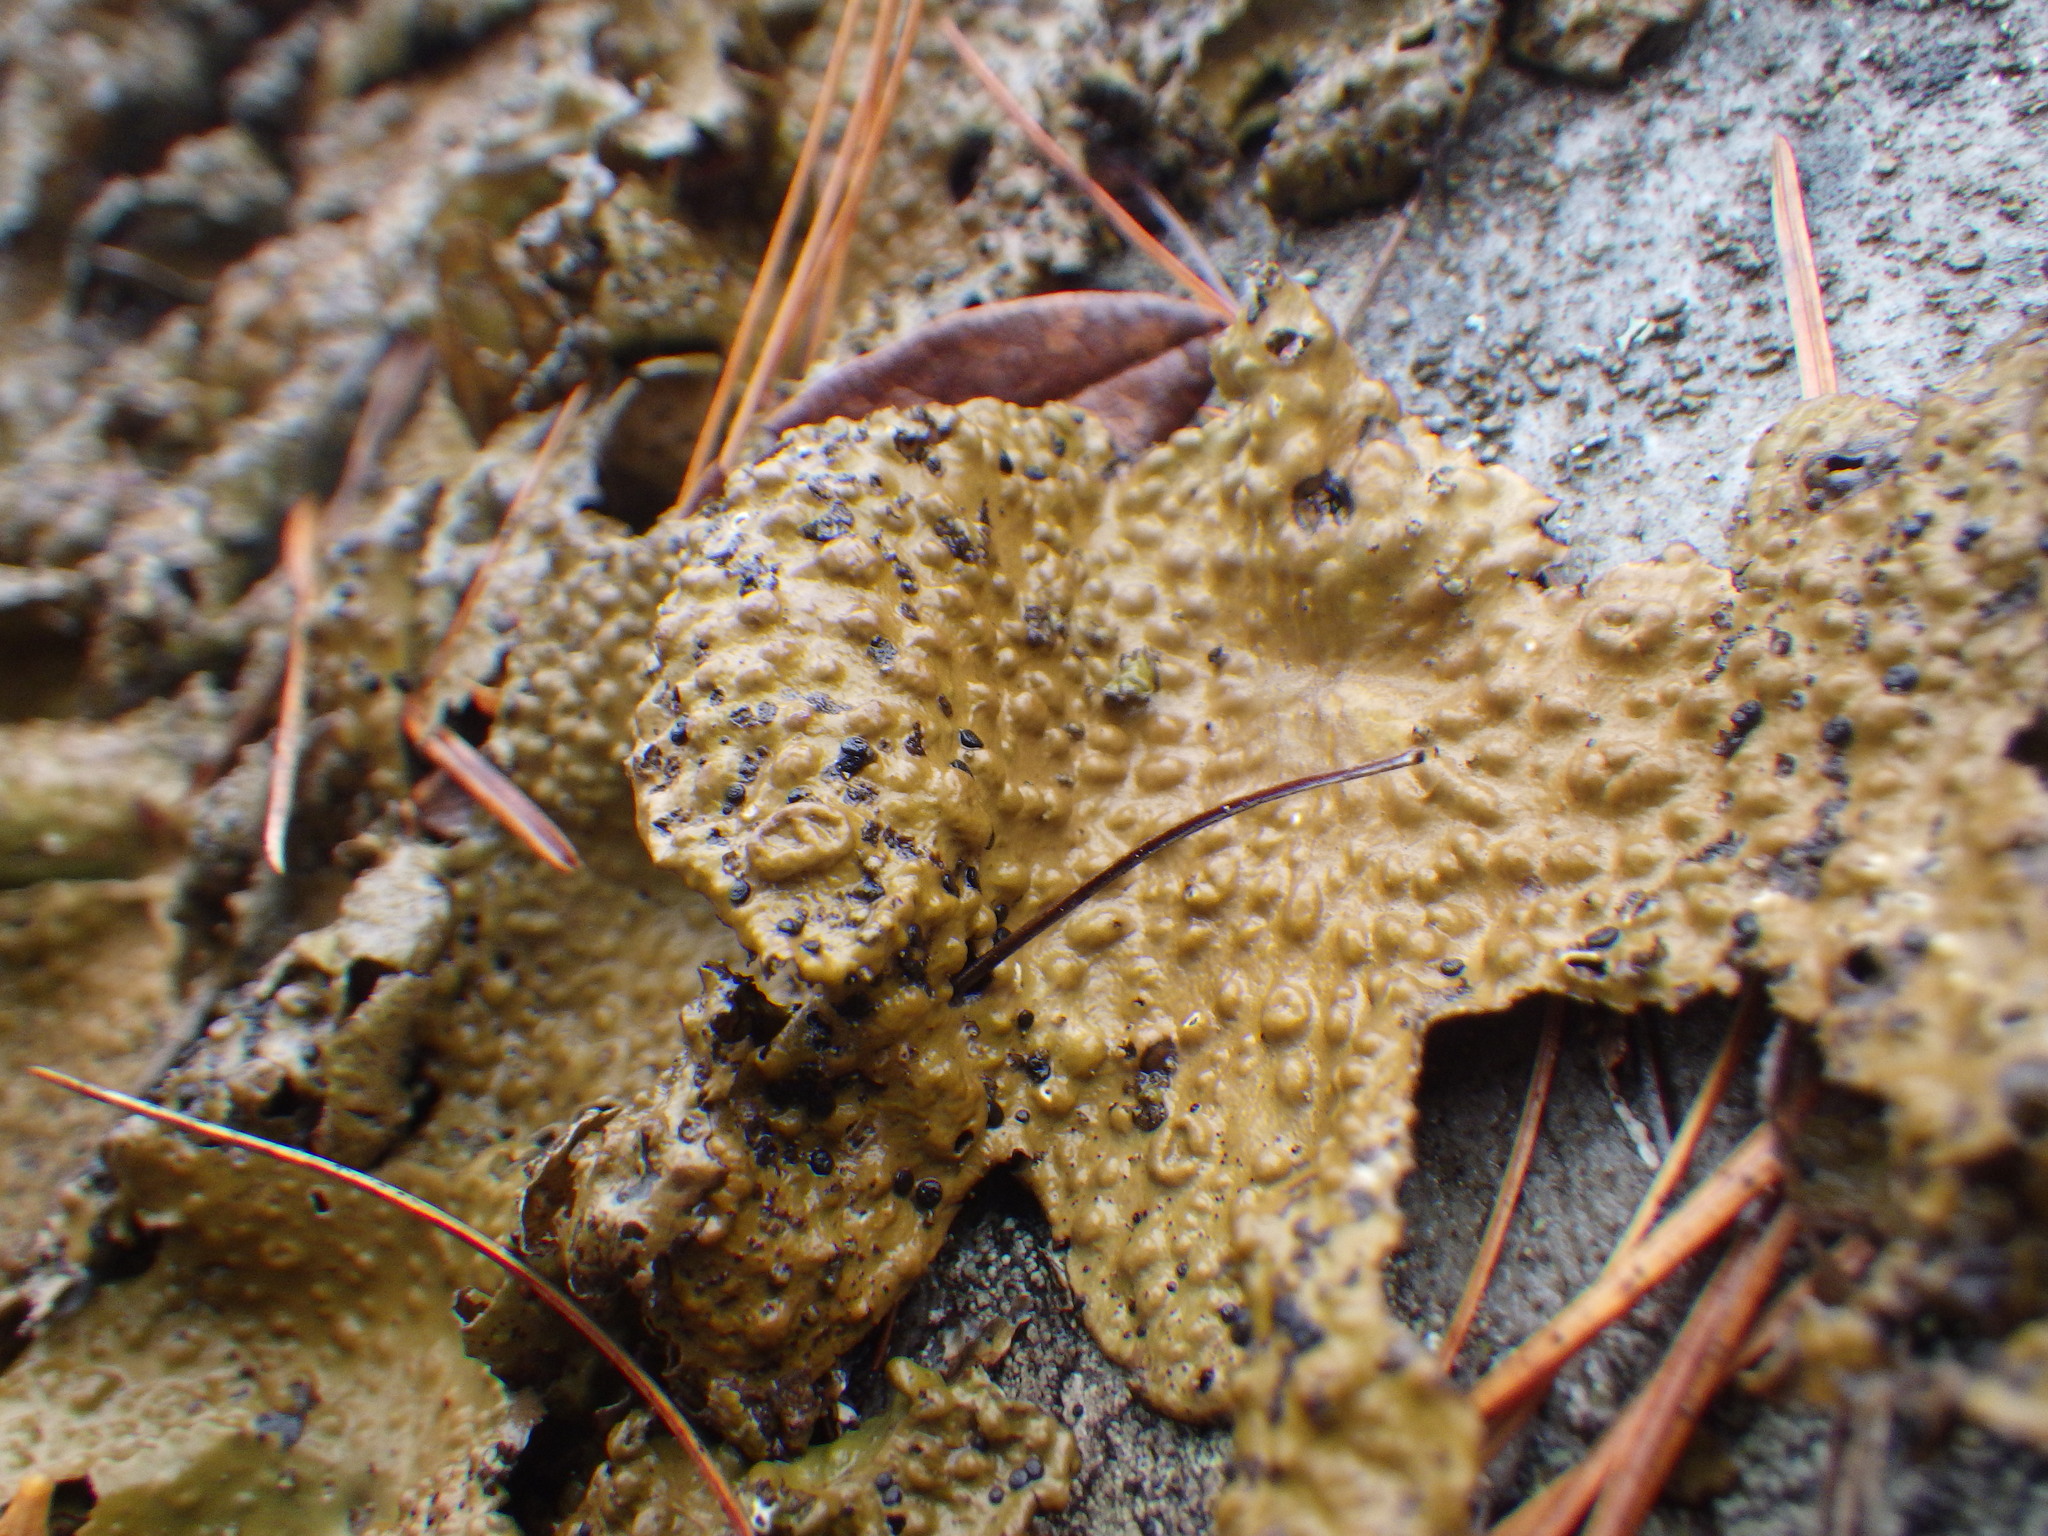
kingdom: Fungi
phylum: Ascomycota
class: Lecanoromycetes
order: Umbilicariales
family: Umbilicariaceae
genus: Lasallia
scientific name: Lasallia papulosa
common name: Common toadskin lichen
